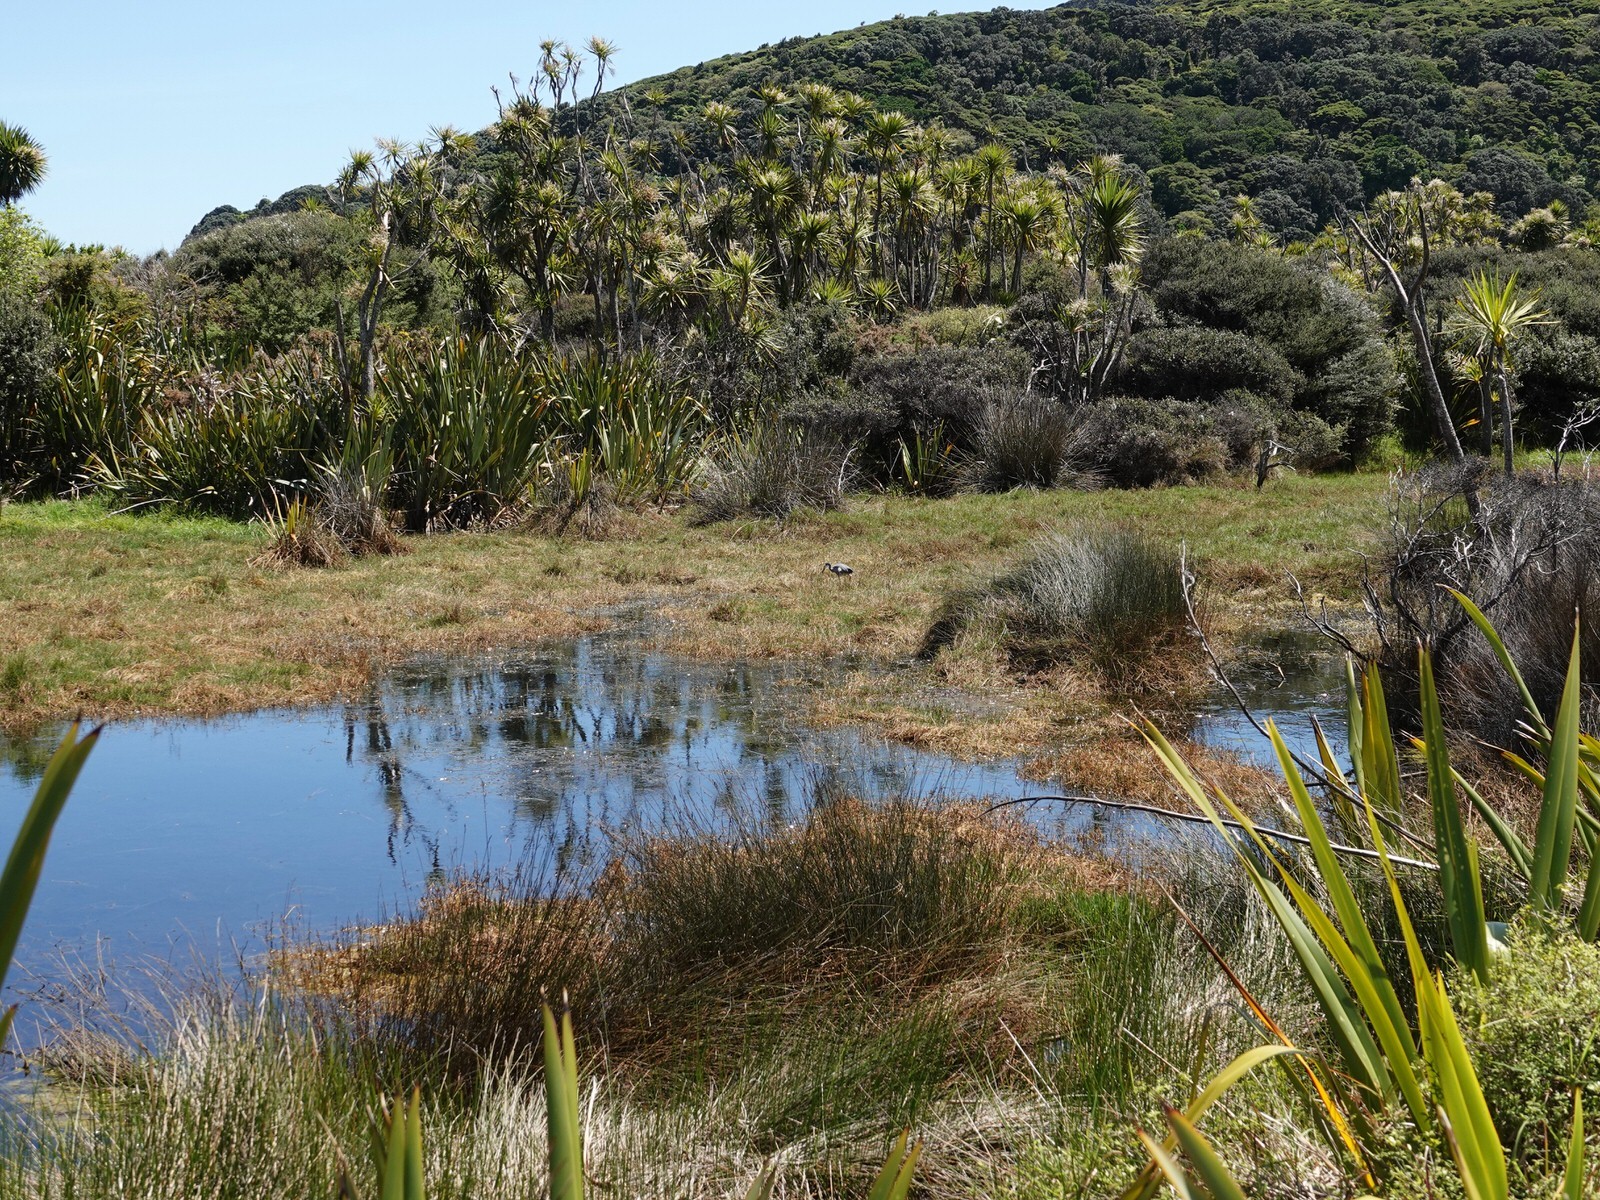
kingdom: Animalia
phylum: Chordata
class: Aves
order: Pelecaniformes
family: Ardeidae
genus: Egretta
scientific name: Egretta novaehollandiae
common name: White-faced heron
